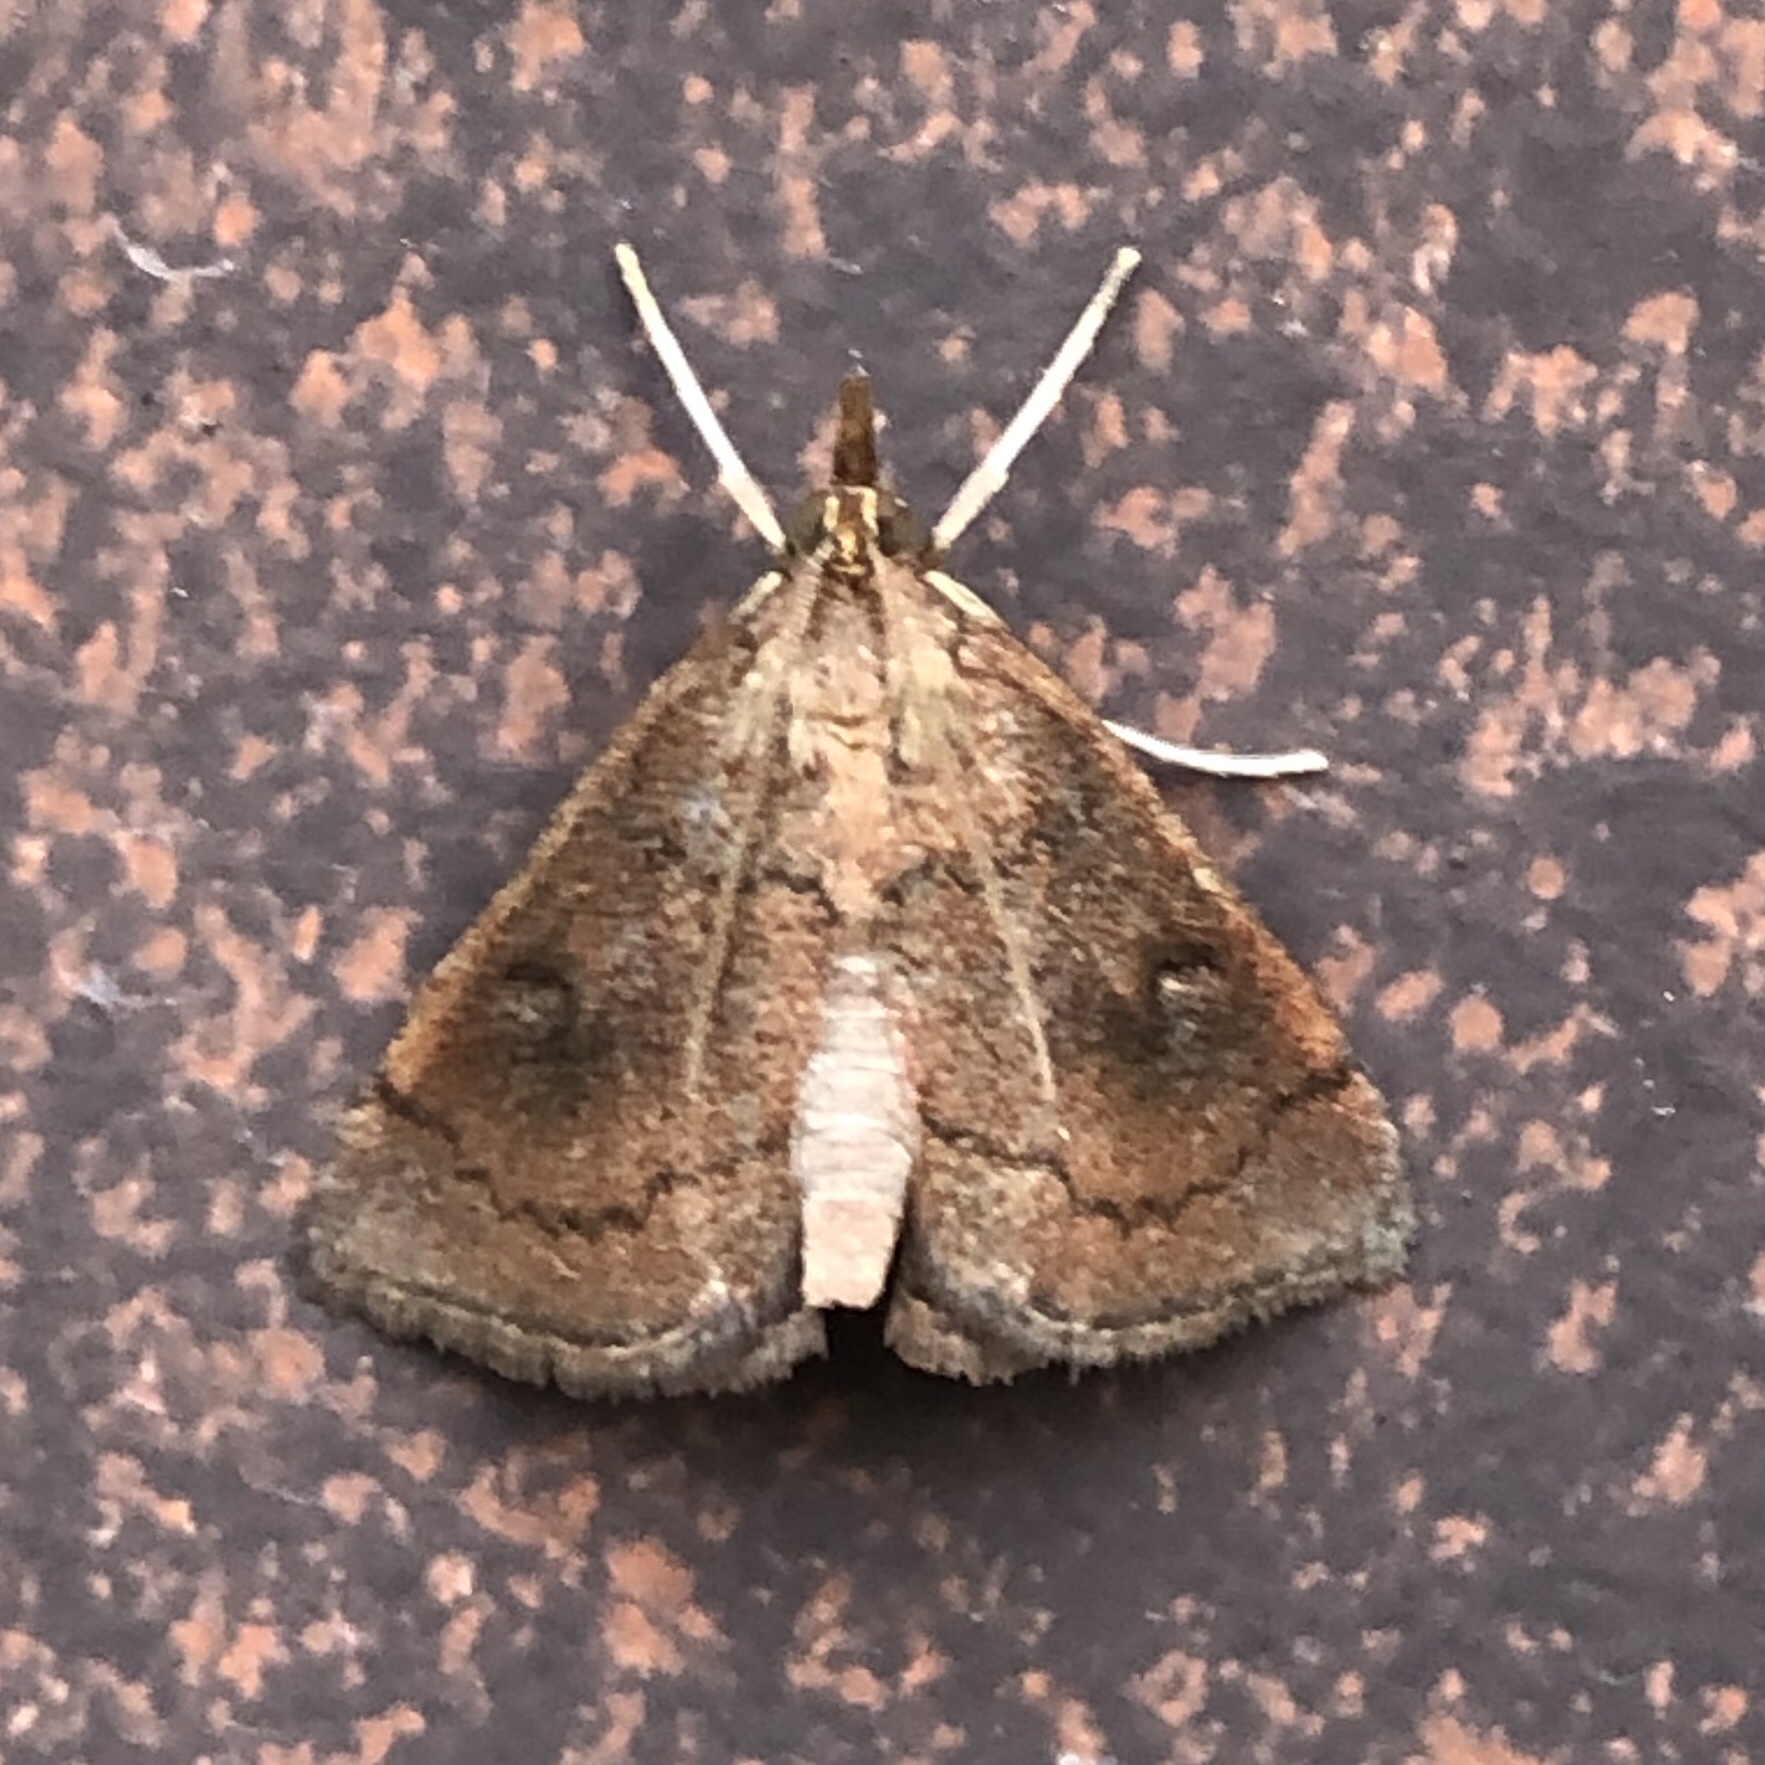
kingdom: Animalia
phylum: Arthropoda
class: Insecta
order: Lepidoptera
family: Crambidae
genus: Fumibotys
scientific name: Fumibotys fumalis
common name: Mint root borer moth
